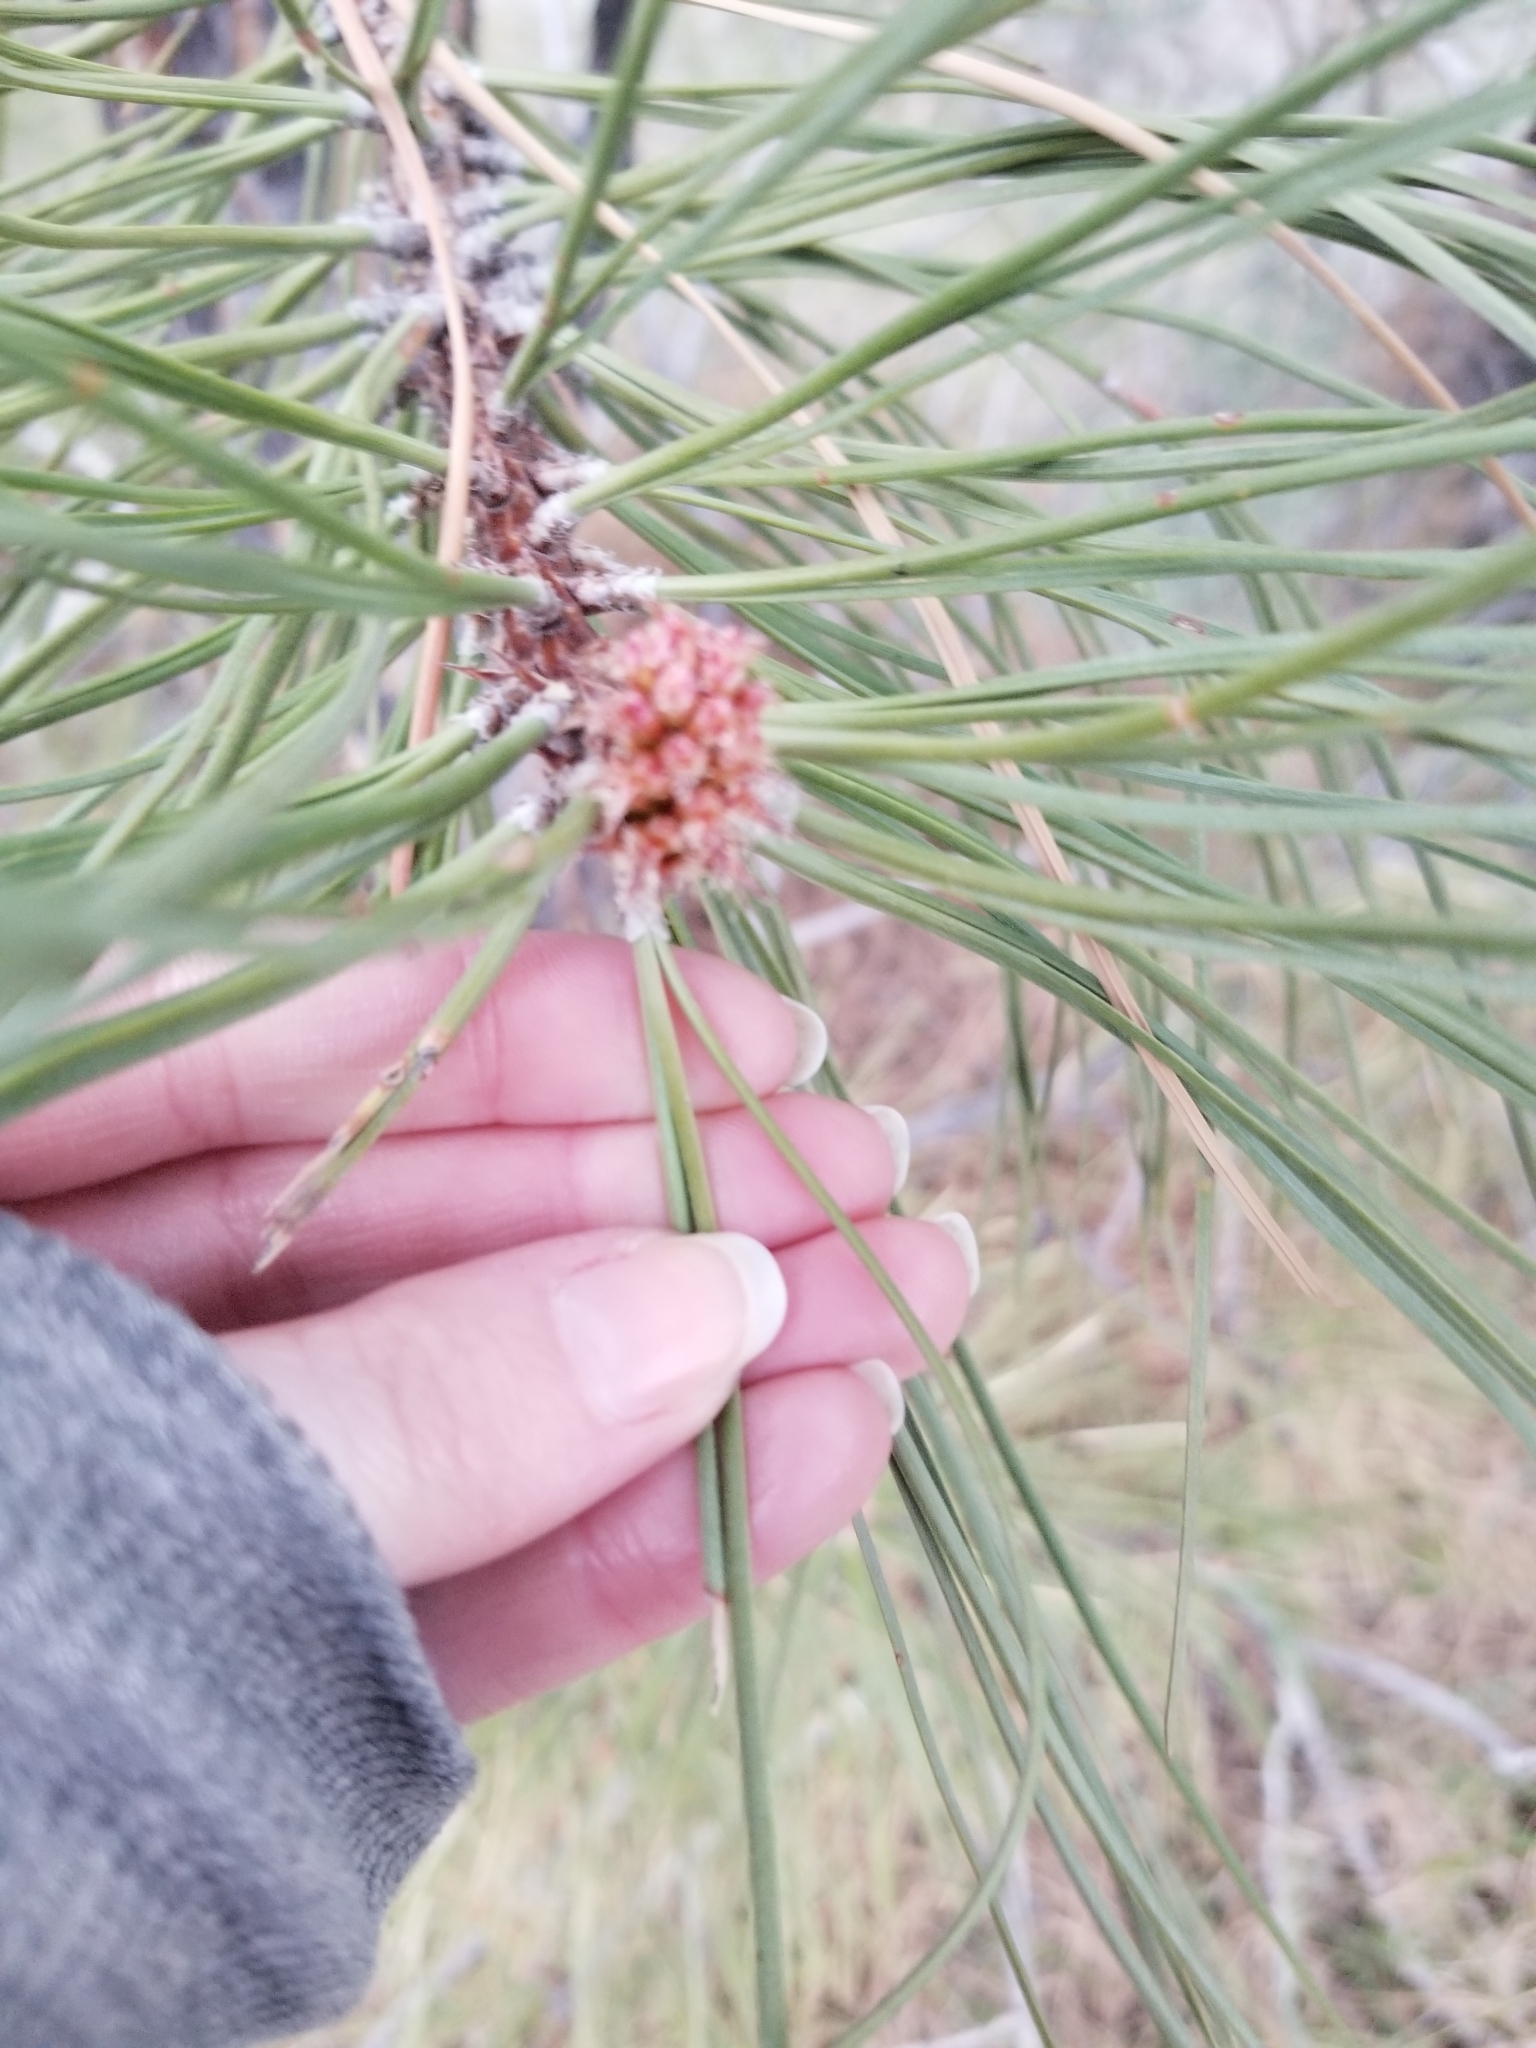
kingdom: Plantae
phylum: Tracheophyta
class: Pinopsida
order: Pinales
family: Pinaceae
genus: Pinus
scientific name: Pinus ponderosa
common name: Western yellow-pine
